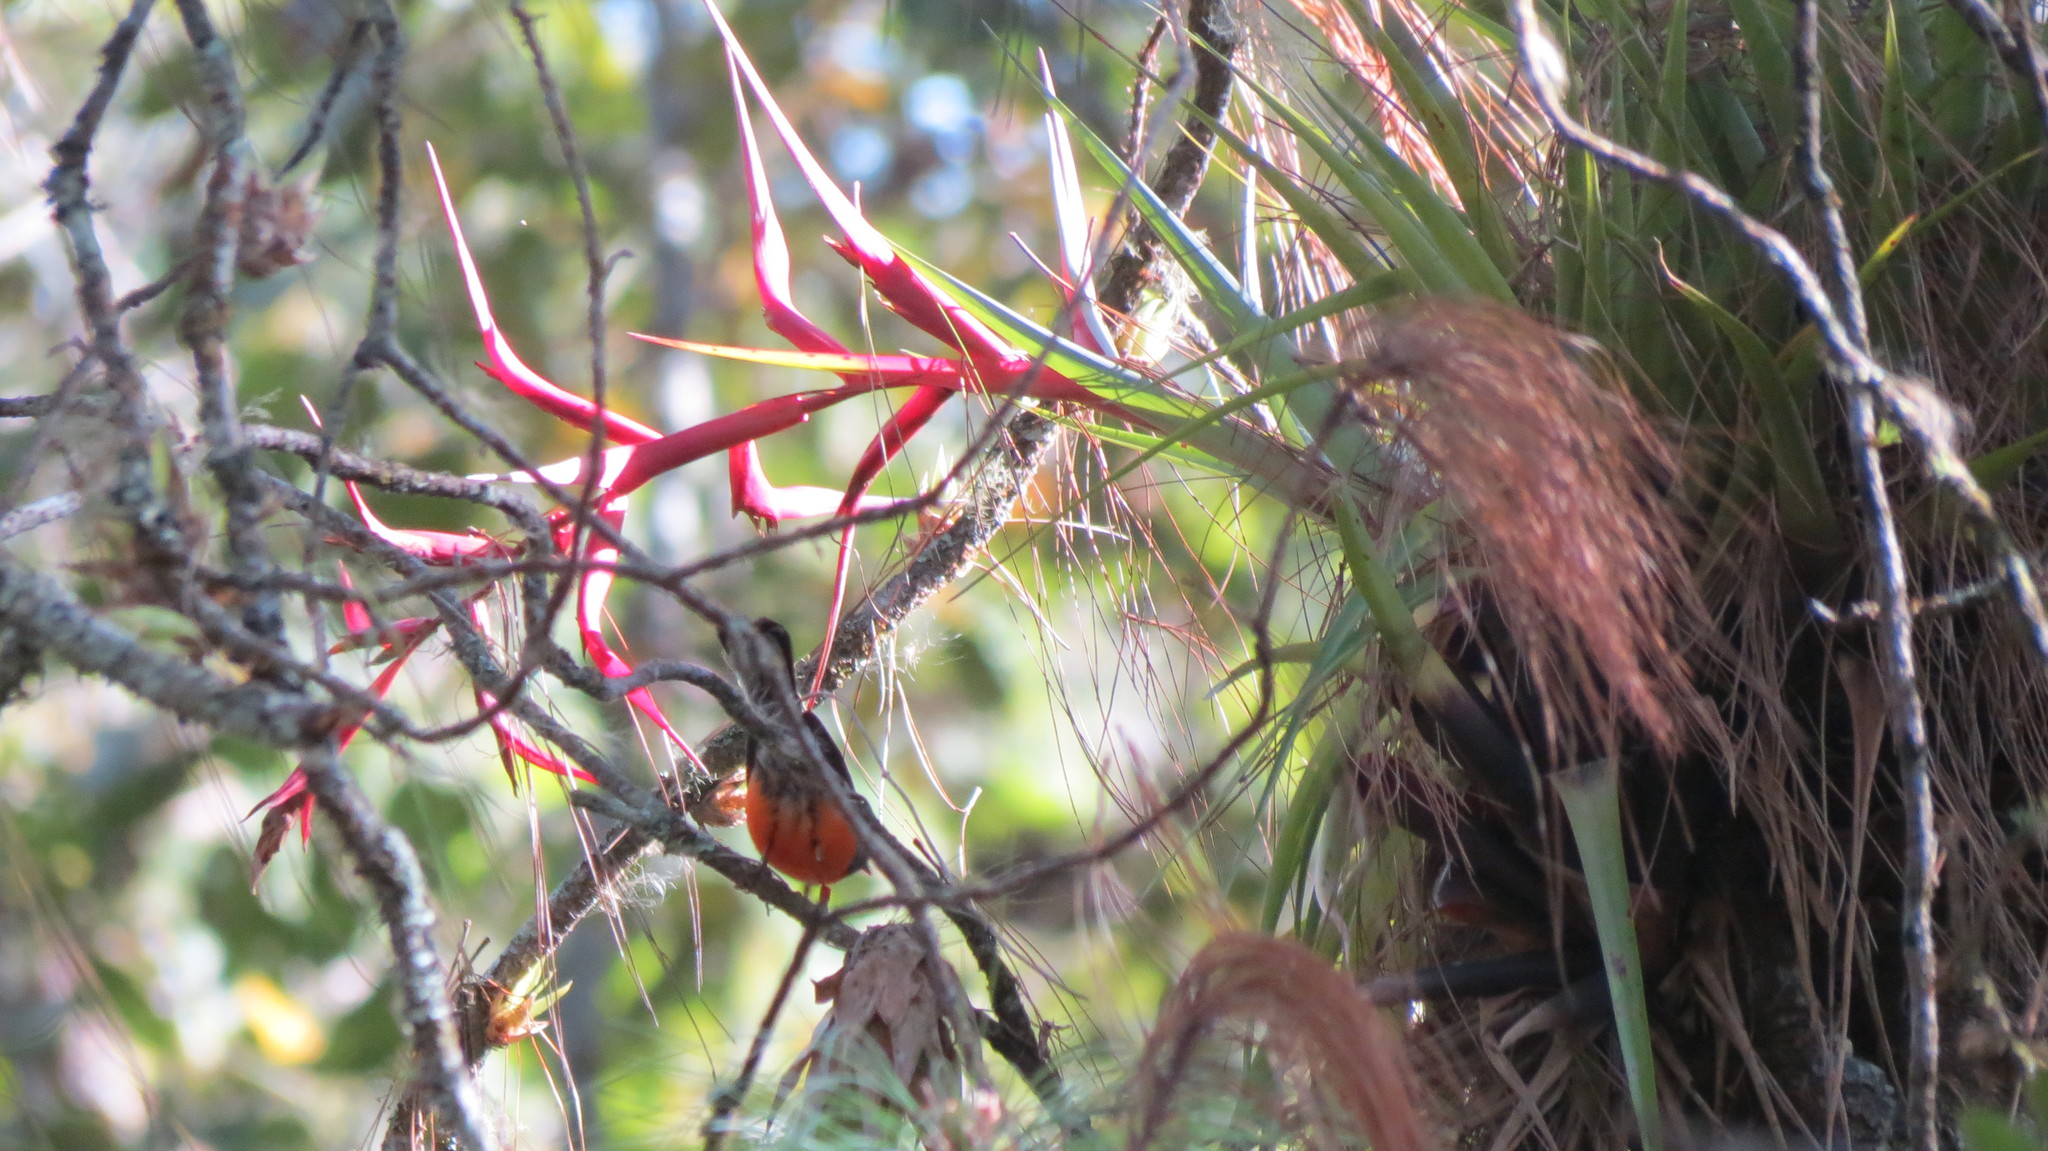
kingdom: Animalia
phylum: Chordata
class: Aves
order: Passeriformes
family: Parulidae
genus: Myioborus
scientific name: Myioborus miniatus
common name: Slate-throated redstart
